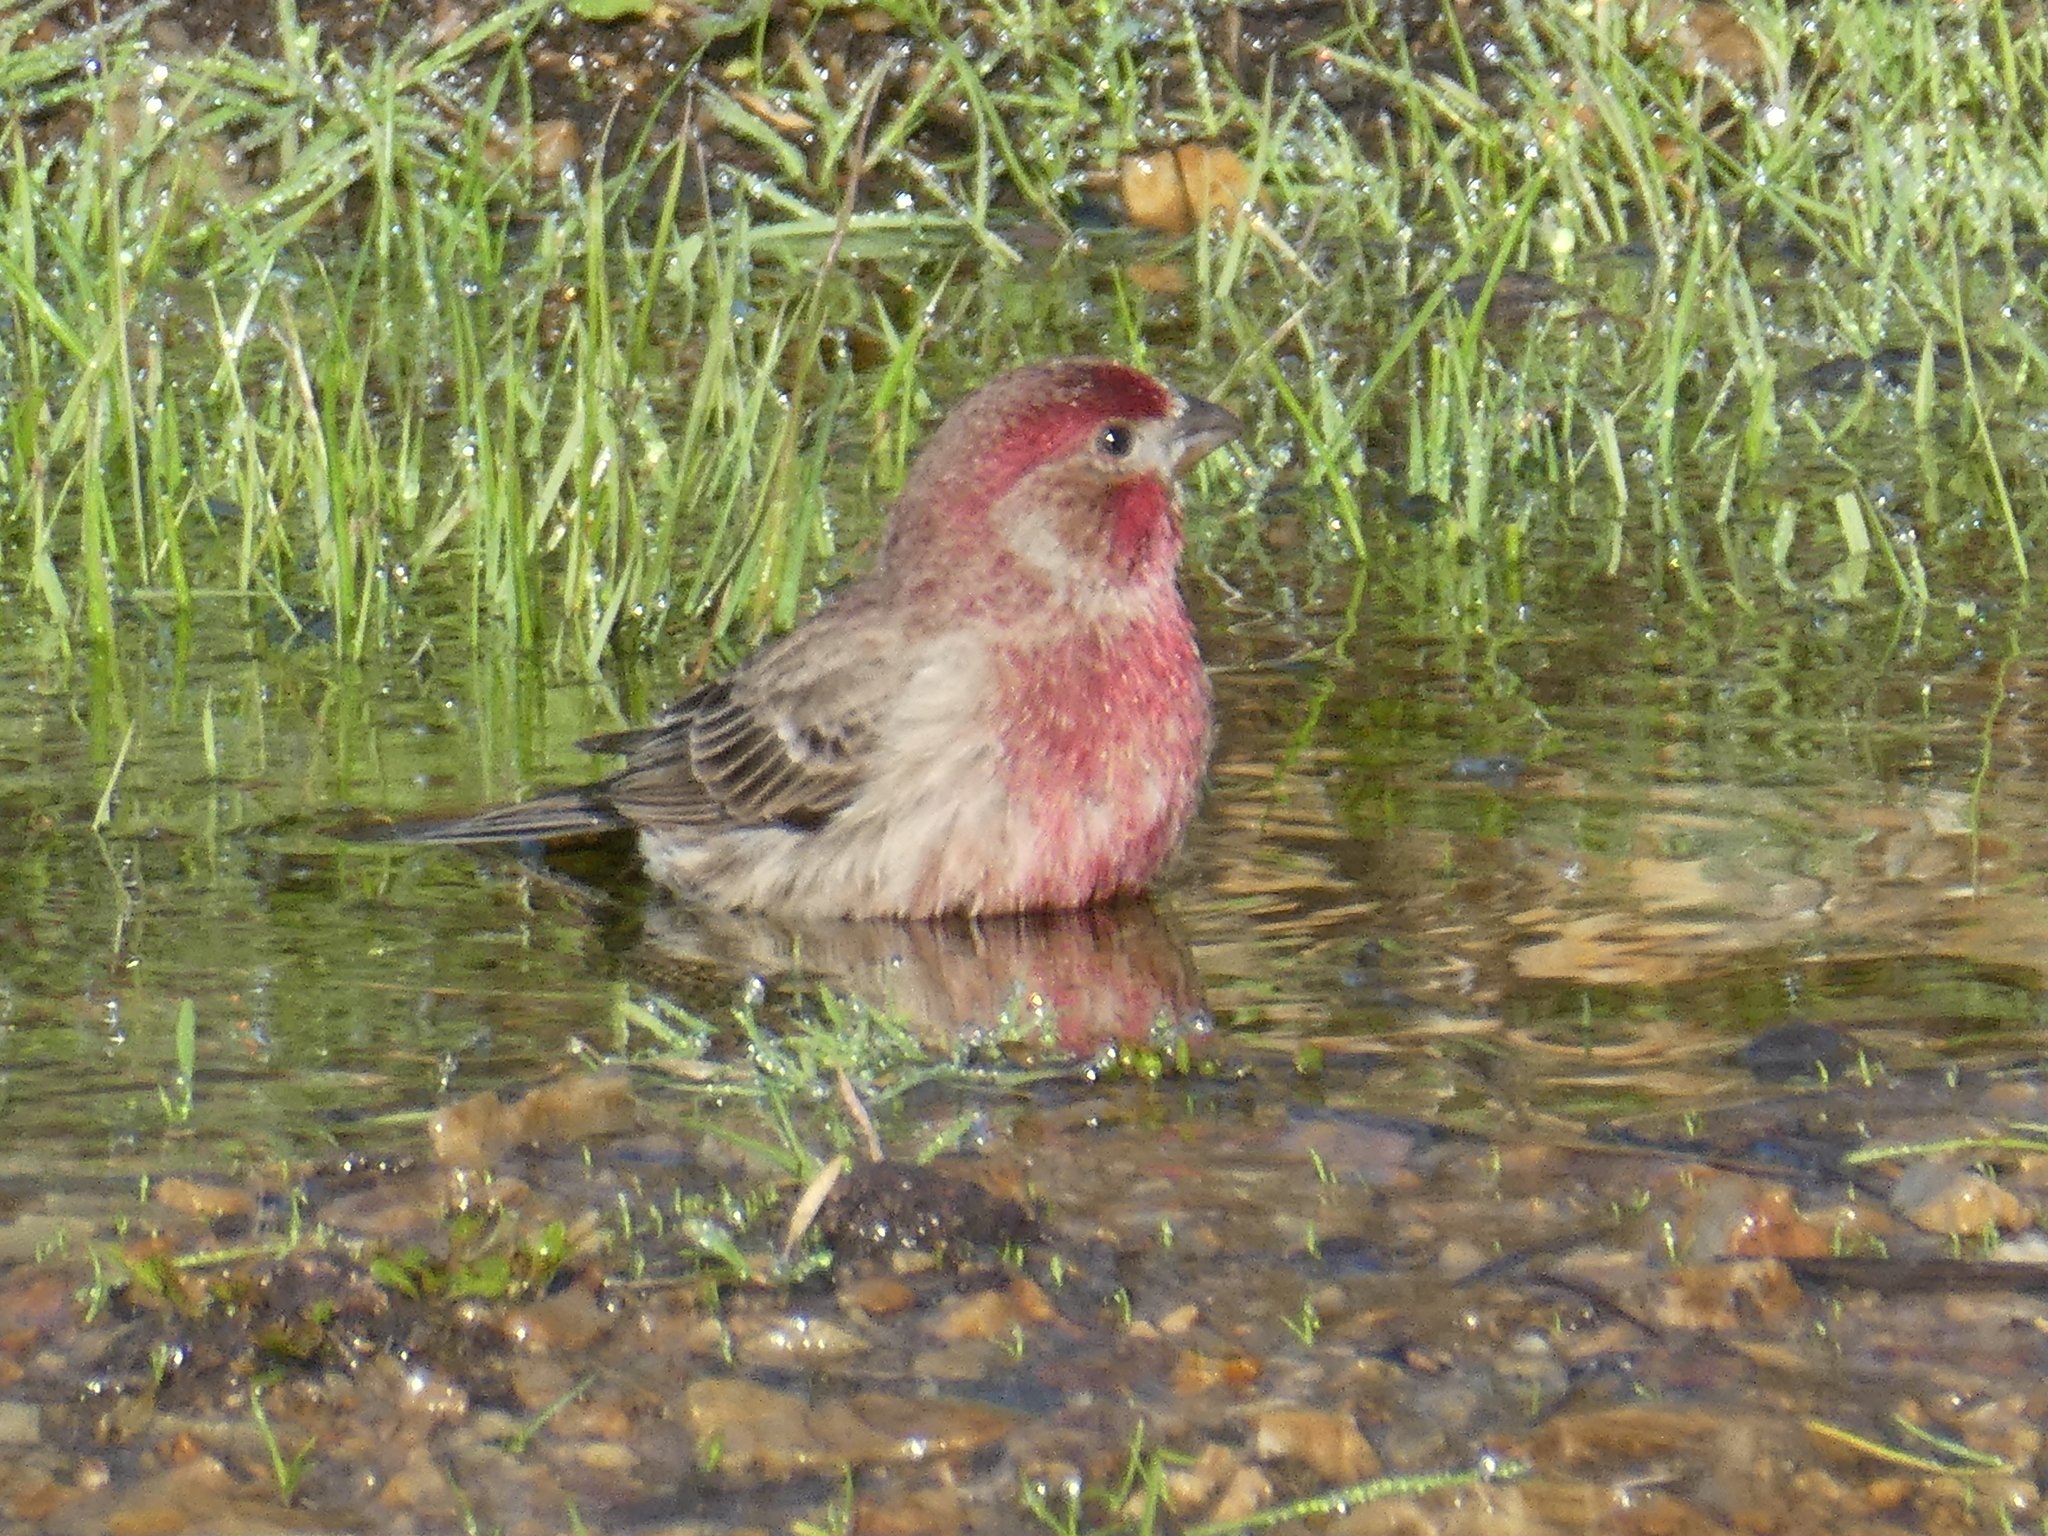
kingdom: Animalia
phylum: Chordata
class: Aves
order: Passeriformes
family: Fringillidae
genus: Haemorhous
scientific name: Haemorhous mexicanus
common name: House finch
